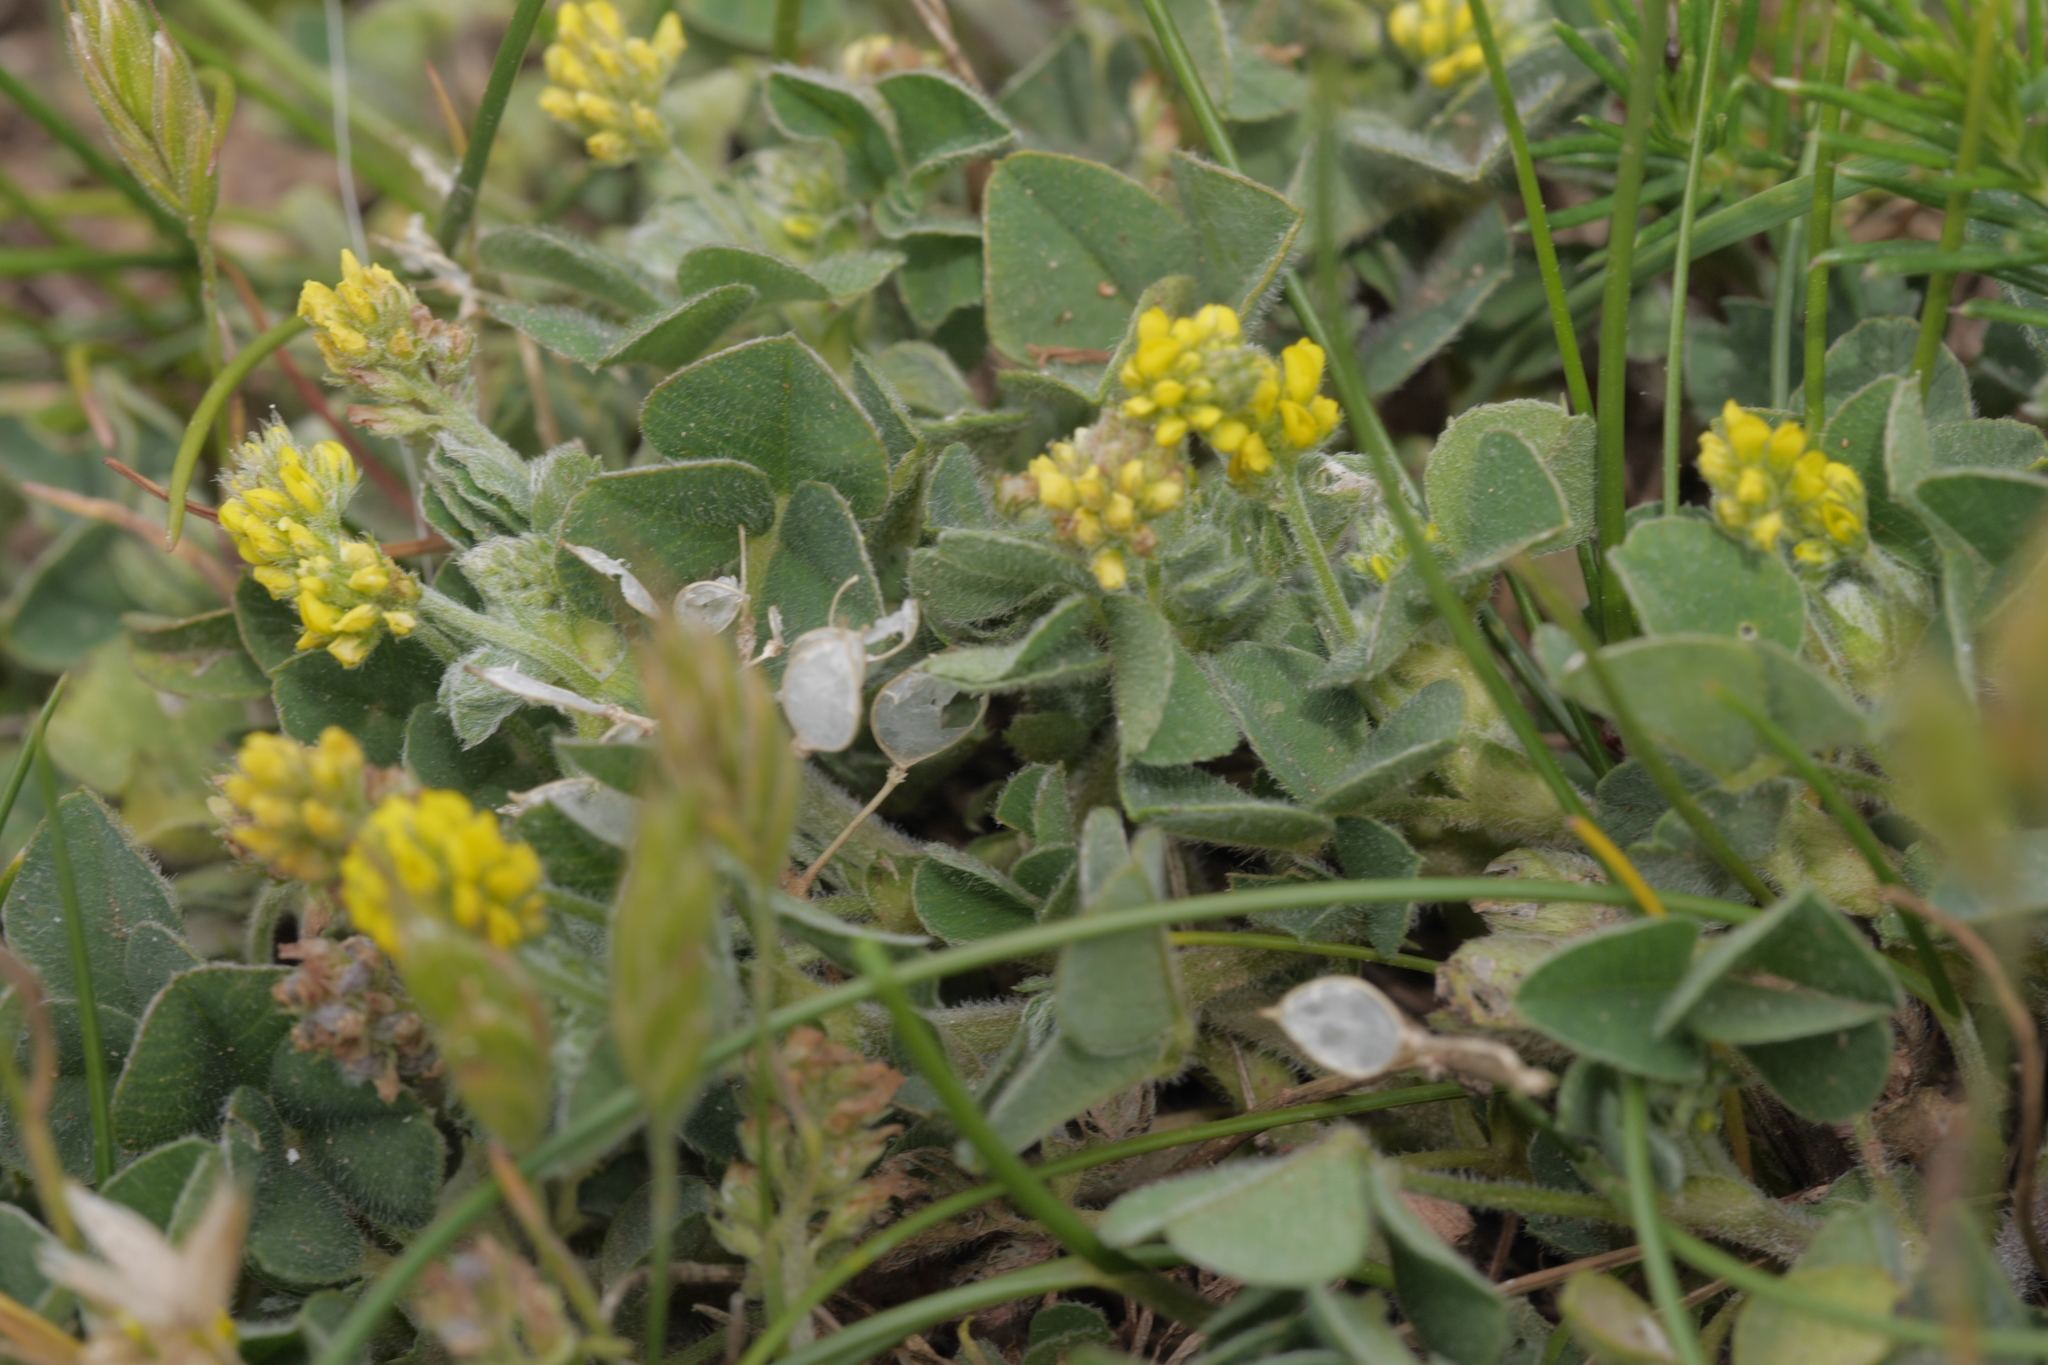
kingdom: Plantae
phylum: Tracheophyta
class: Magnoliopsida
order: Fabales
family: Fabaceae
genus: Medicago
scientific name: Medicago lupulina
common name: Black medick
